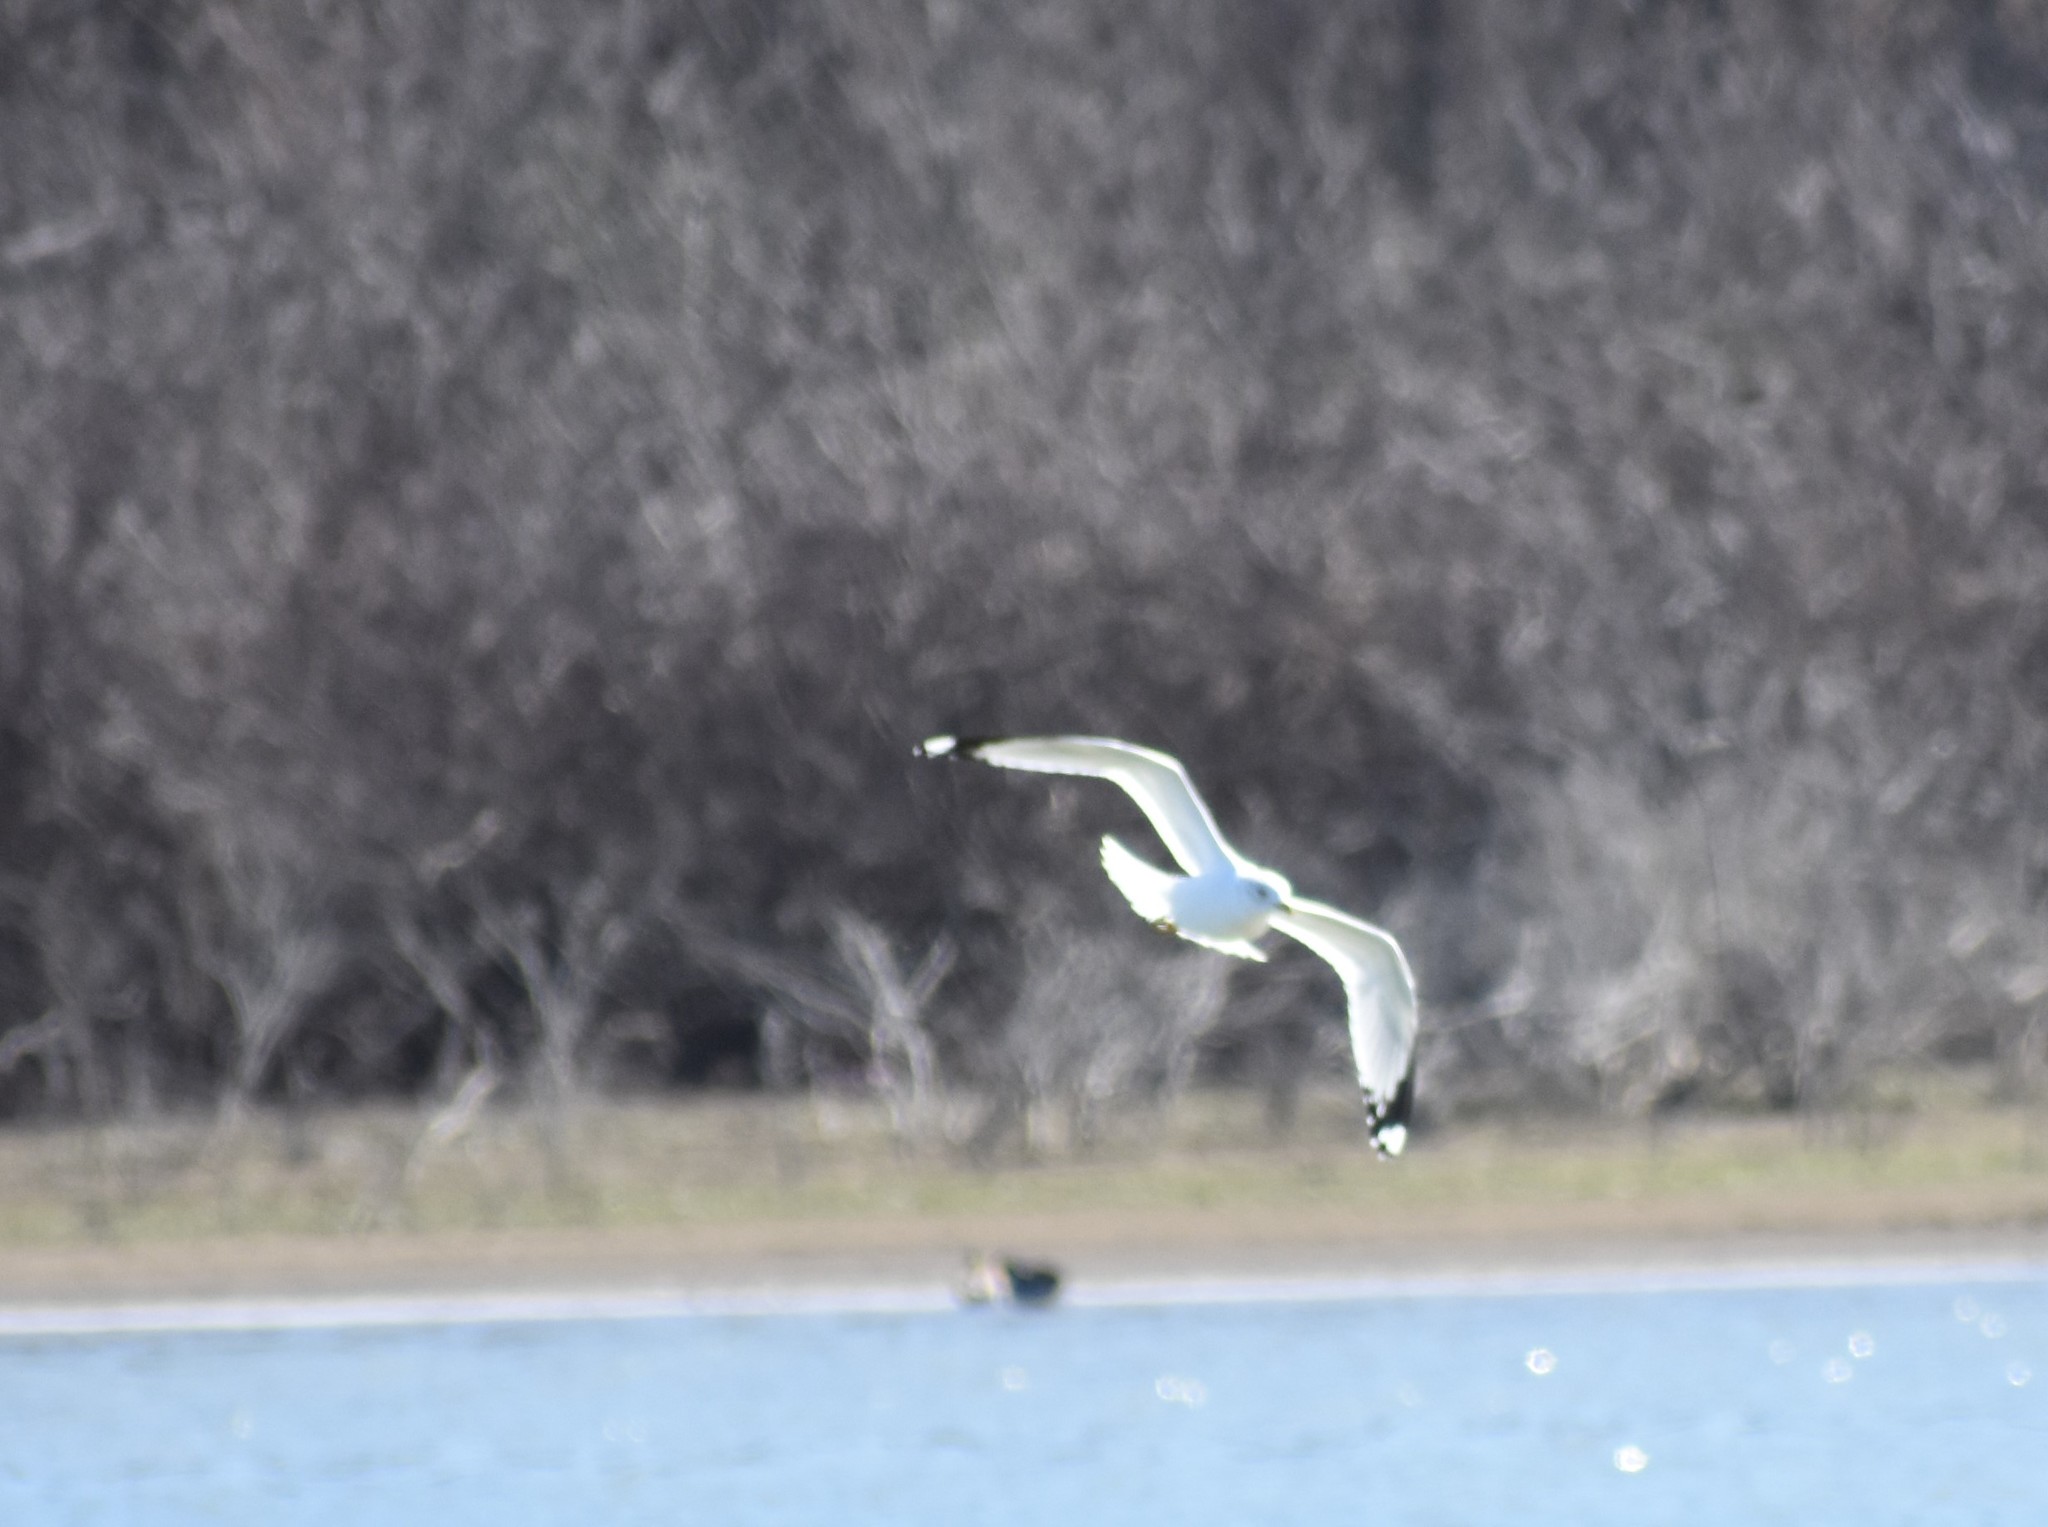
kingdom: Animalia
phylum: Chordata
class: Aves
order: Charadriiformes
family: Laridae
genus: Larus
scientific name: Larus delawarensis
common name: Ring-billed gull
